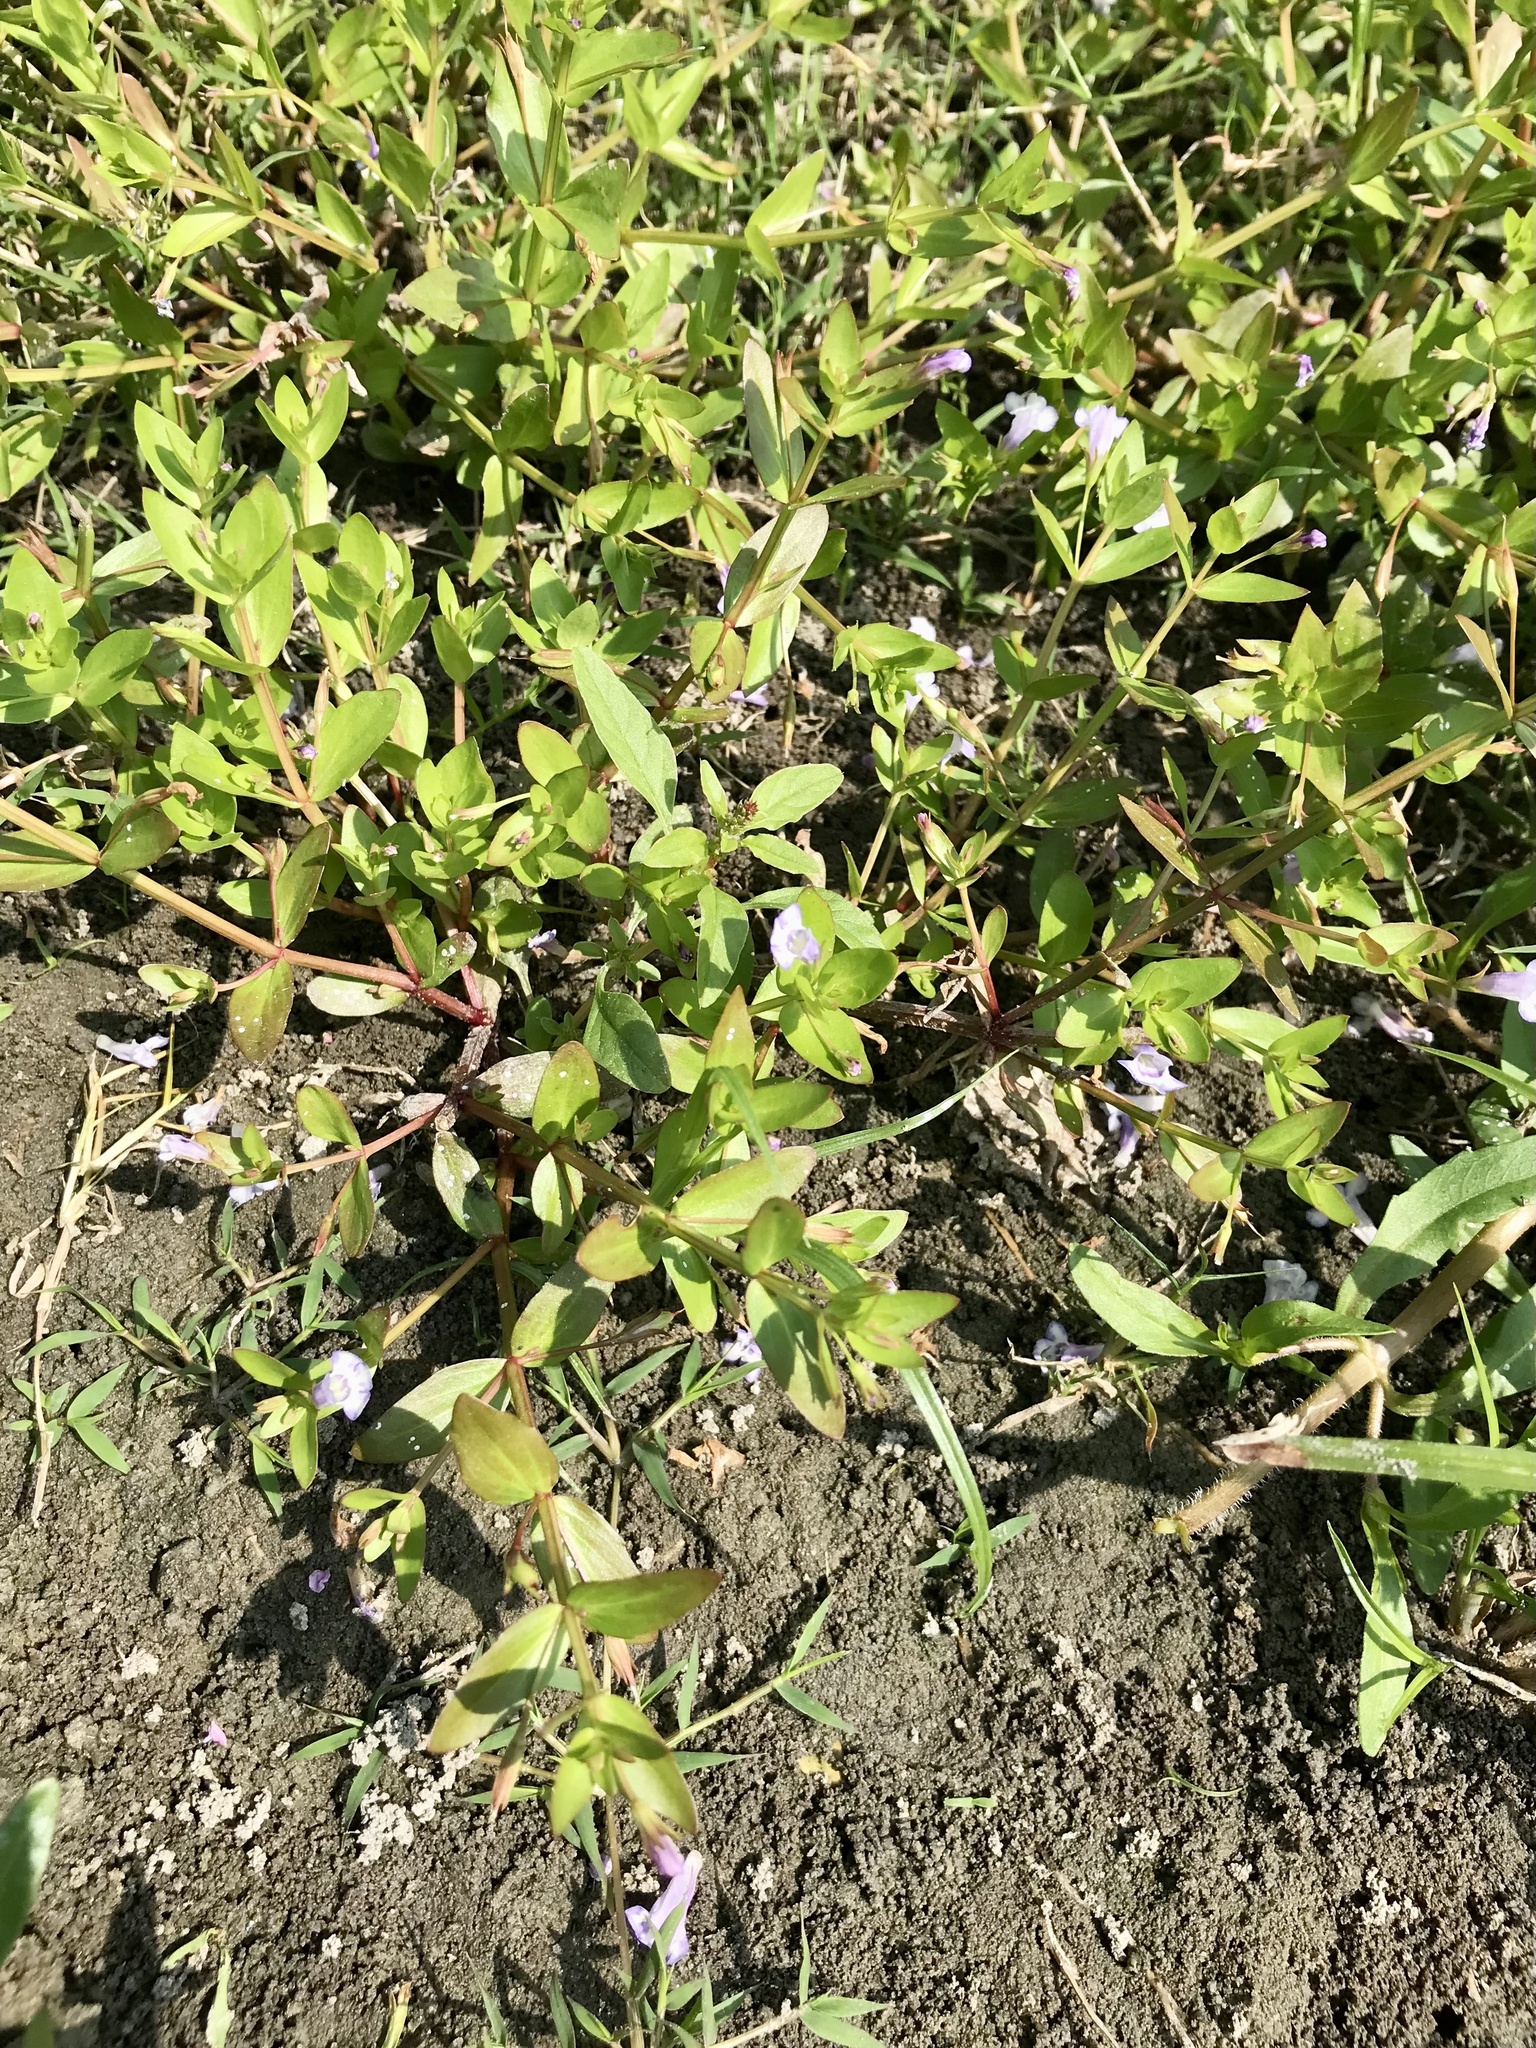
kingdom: Plantae
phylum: Tracheophyta
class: Magnoliopsida
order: Lamiales
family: Linderniaceae
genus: Lindernia
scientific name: Lindernia dubia
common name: Annual false pimpernel
